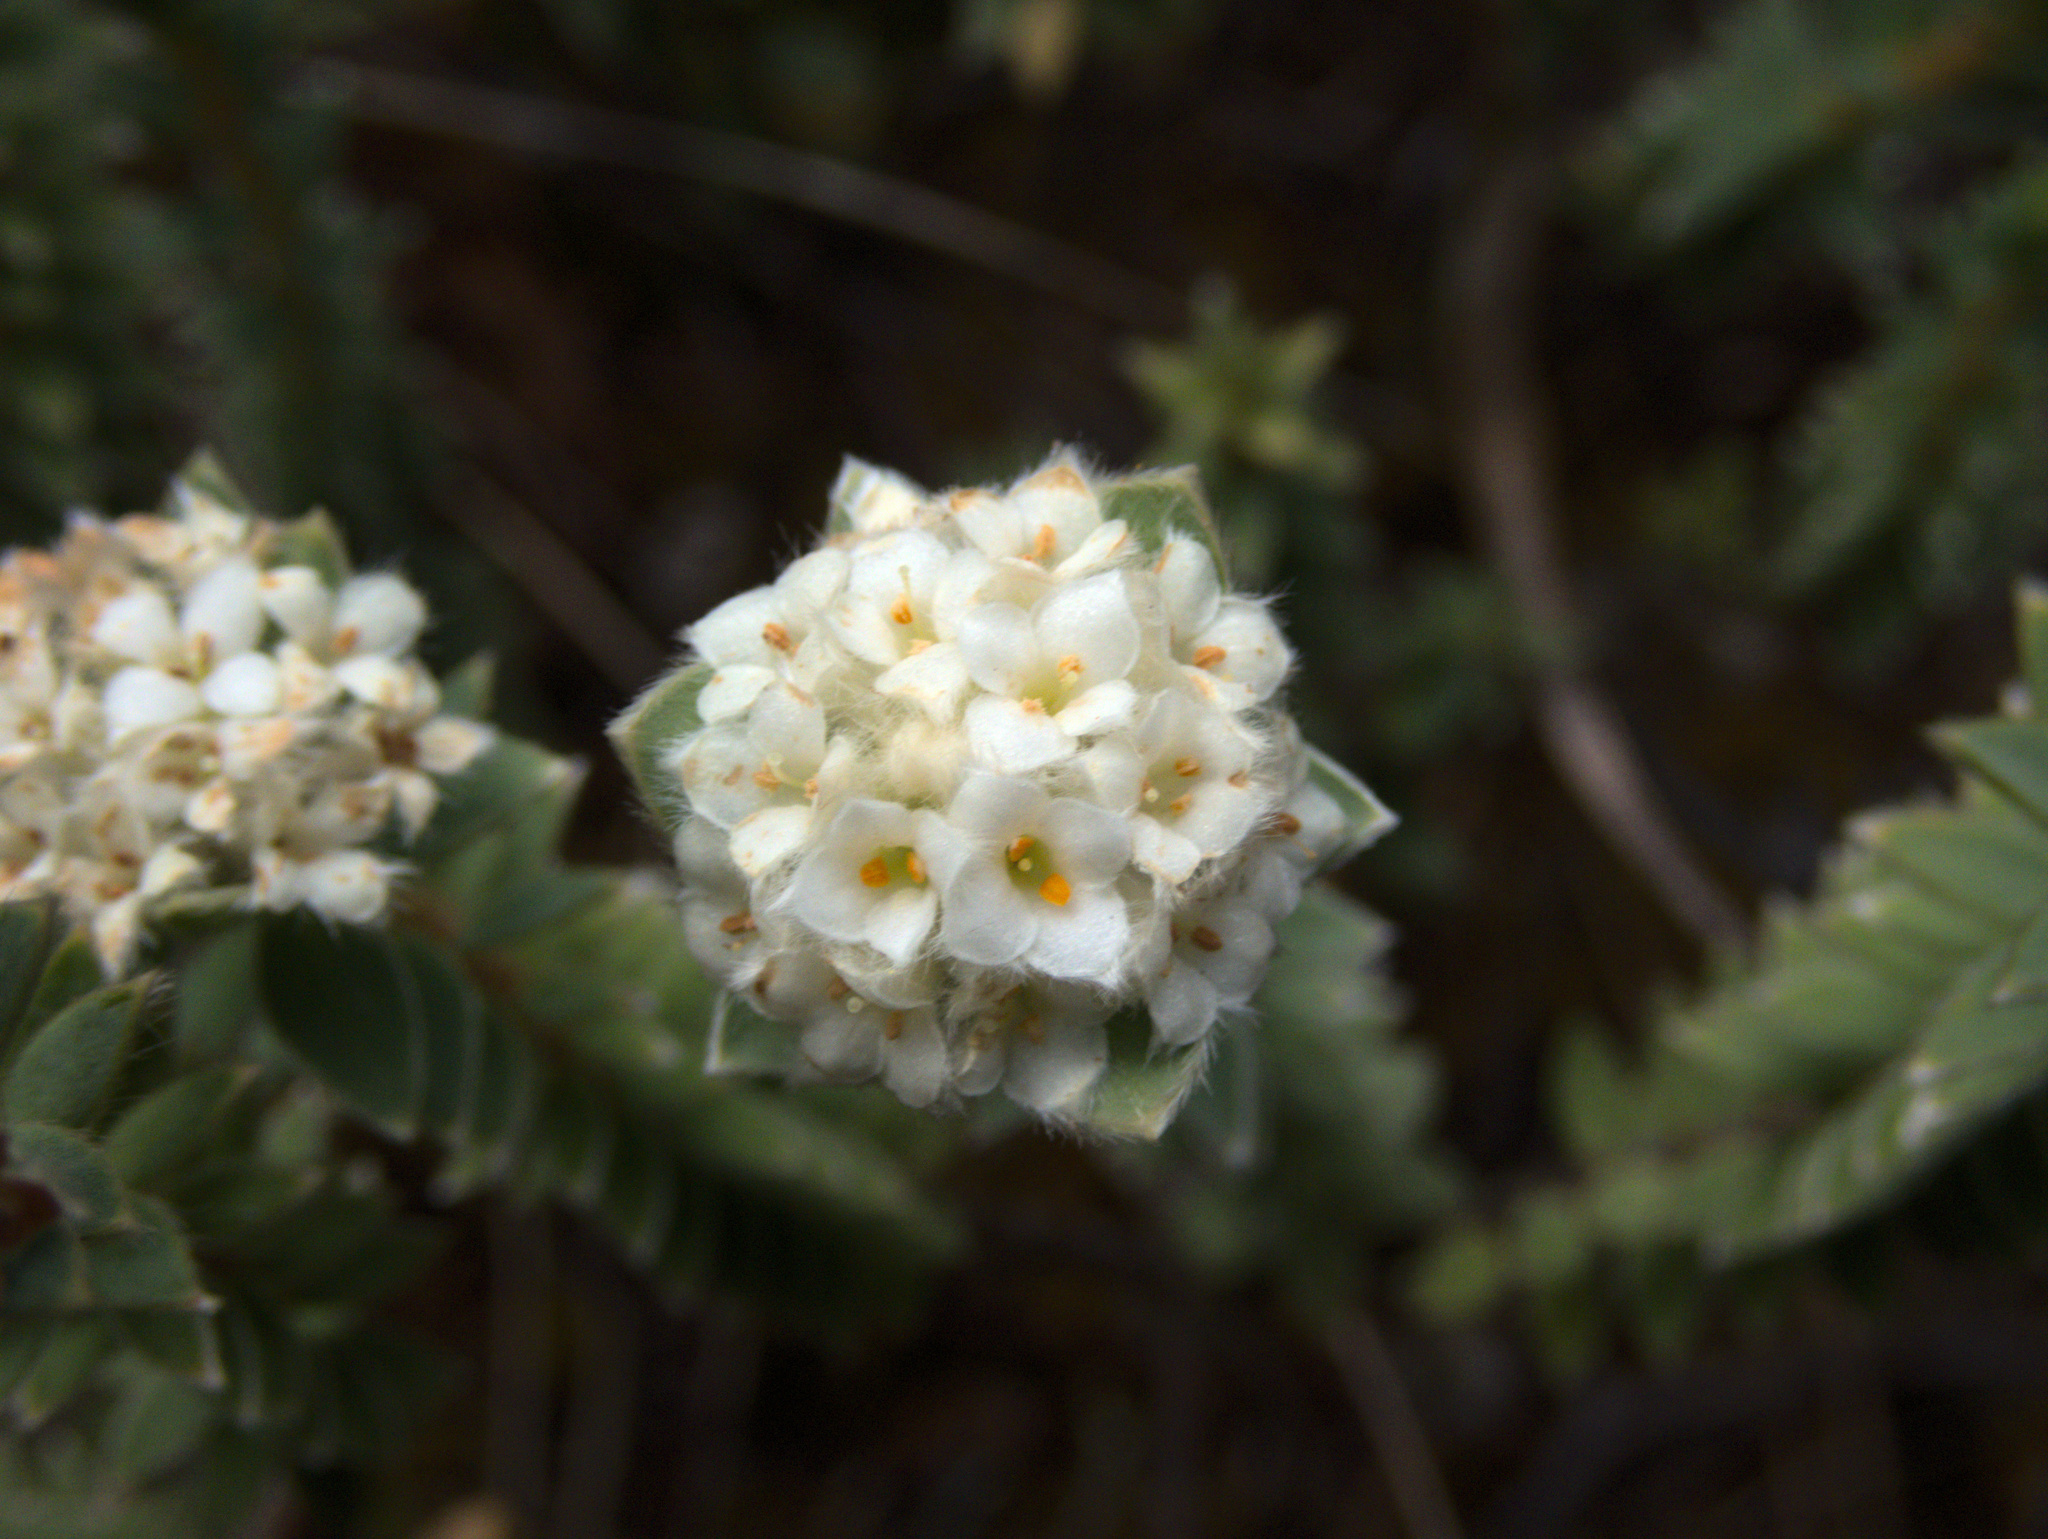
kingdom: Plantae
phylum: Tracheophyta
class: Magnoliopsida
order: Malvales
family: Thymelaeaceae
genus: Pimelea
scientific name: Pimelea villosa
